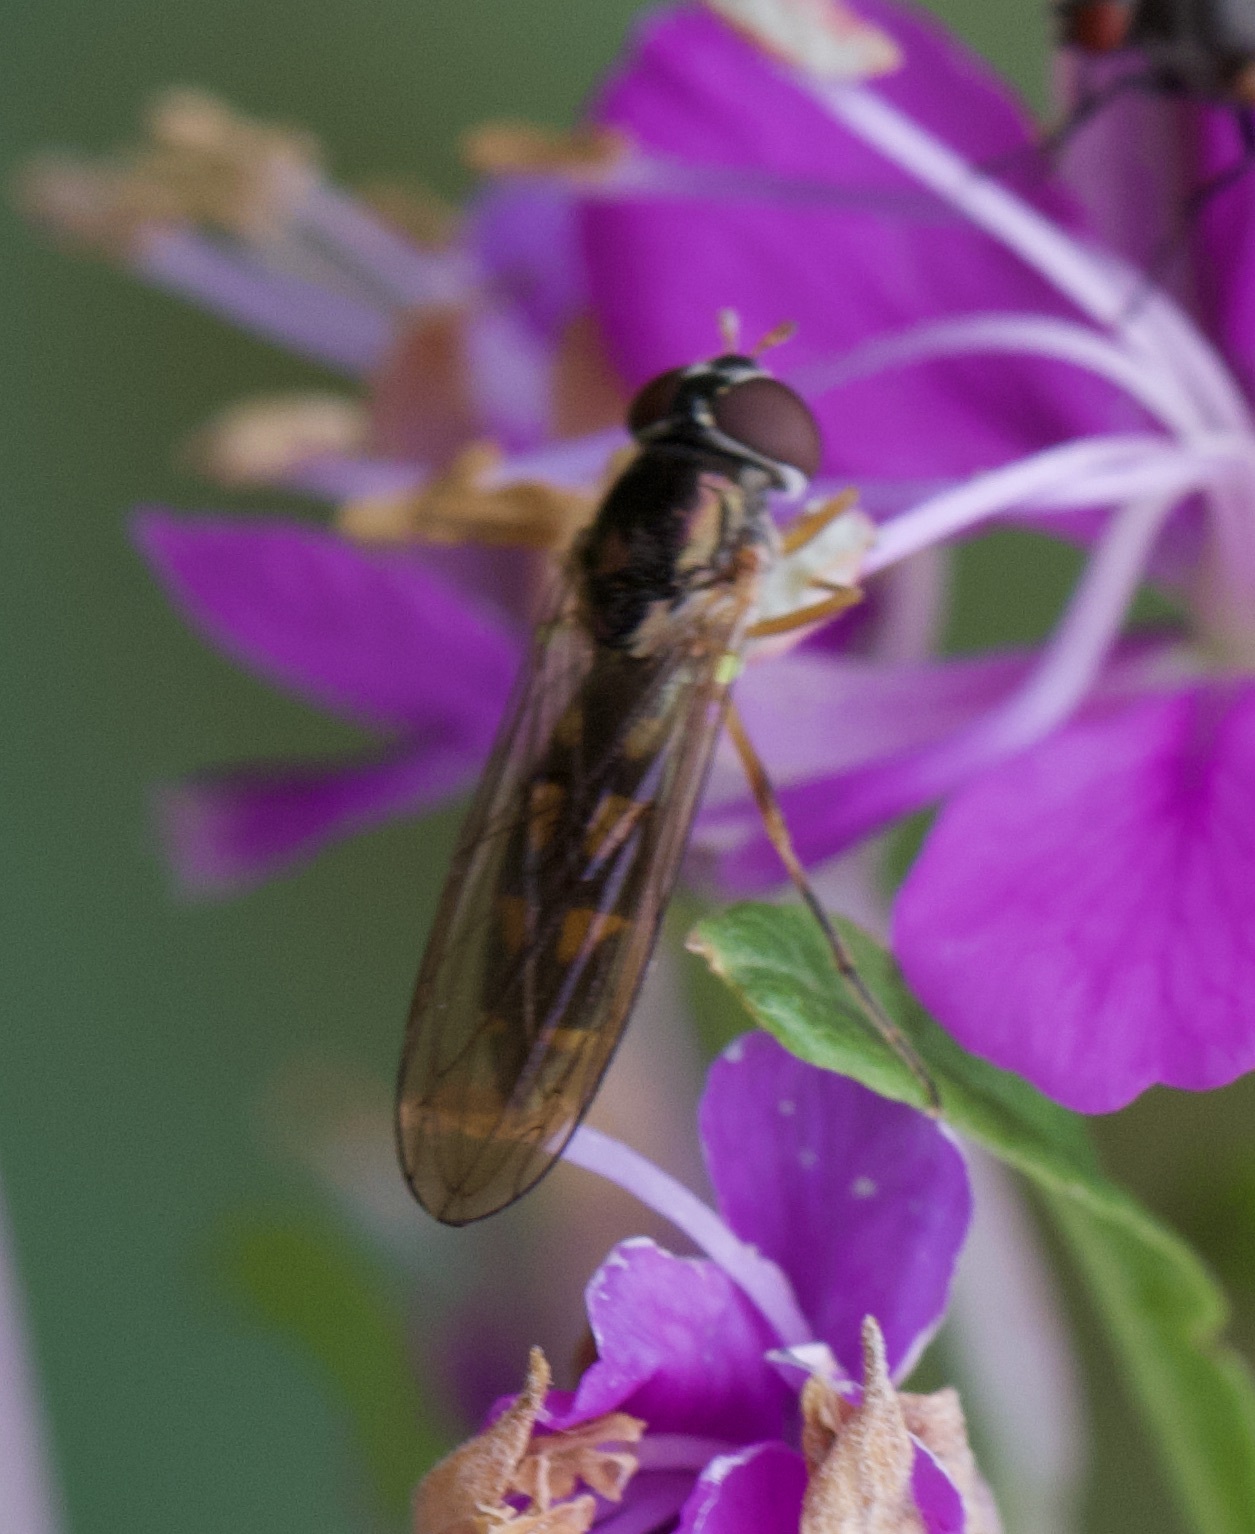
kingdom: Animalia
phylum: Arthropoda
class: Insecta
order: Diptera
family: Syrphidae
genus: Melanostoma
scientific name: Melanostoma scalare
